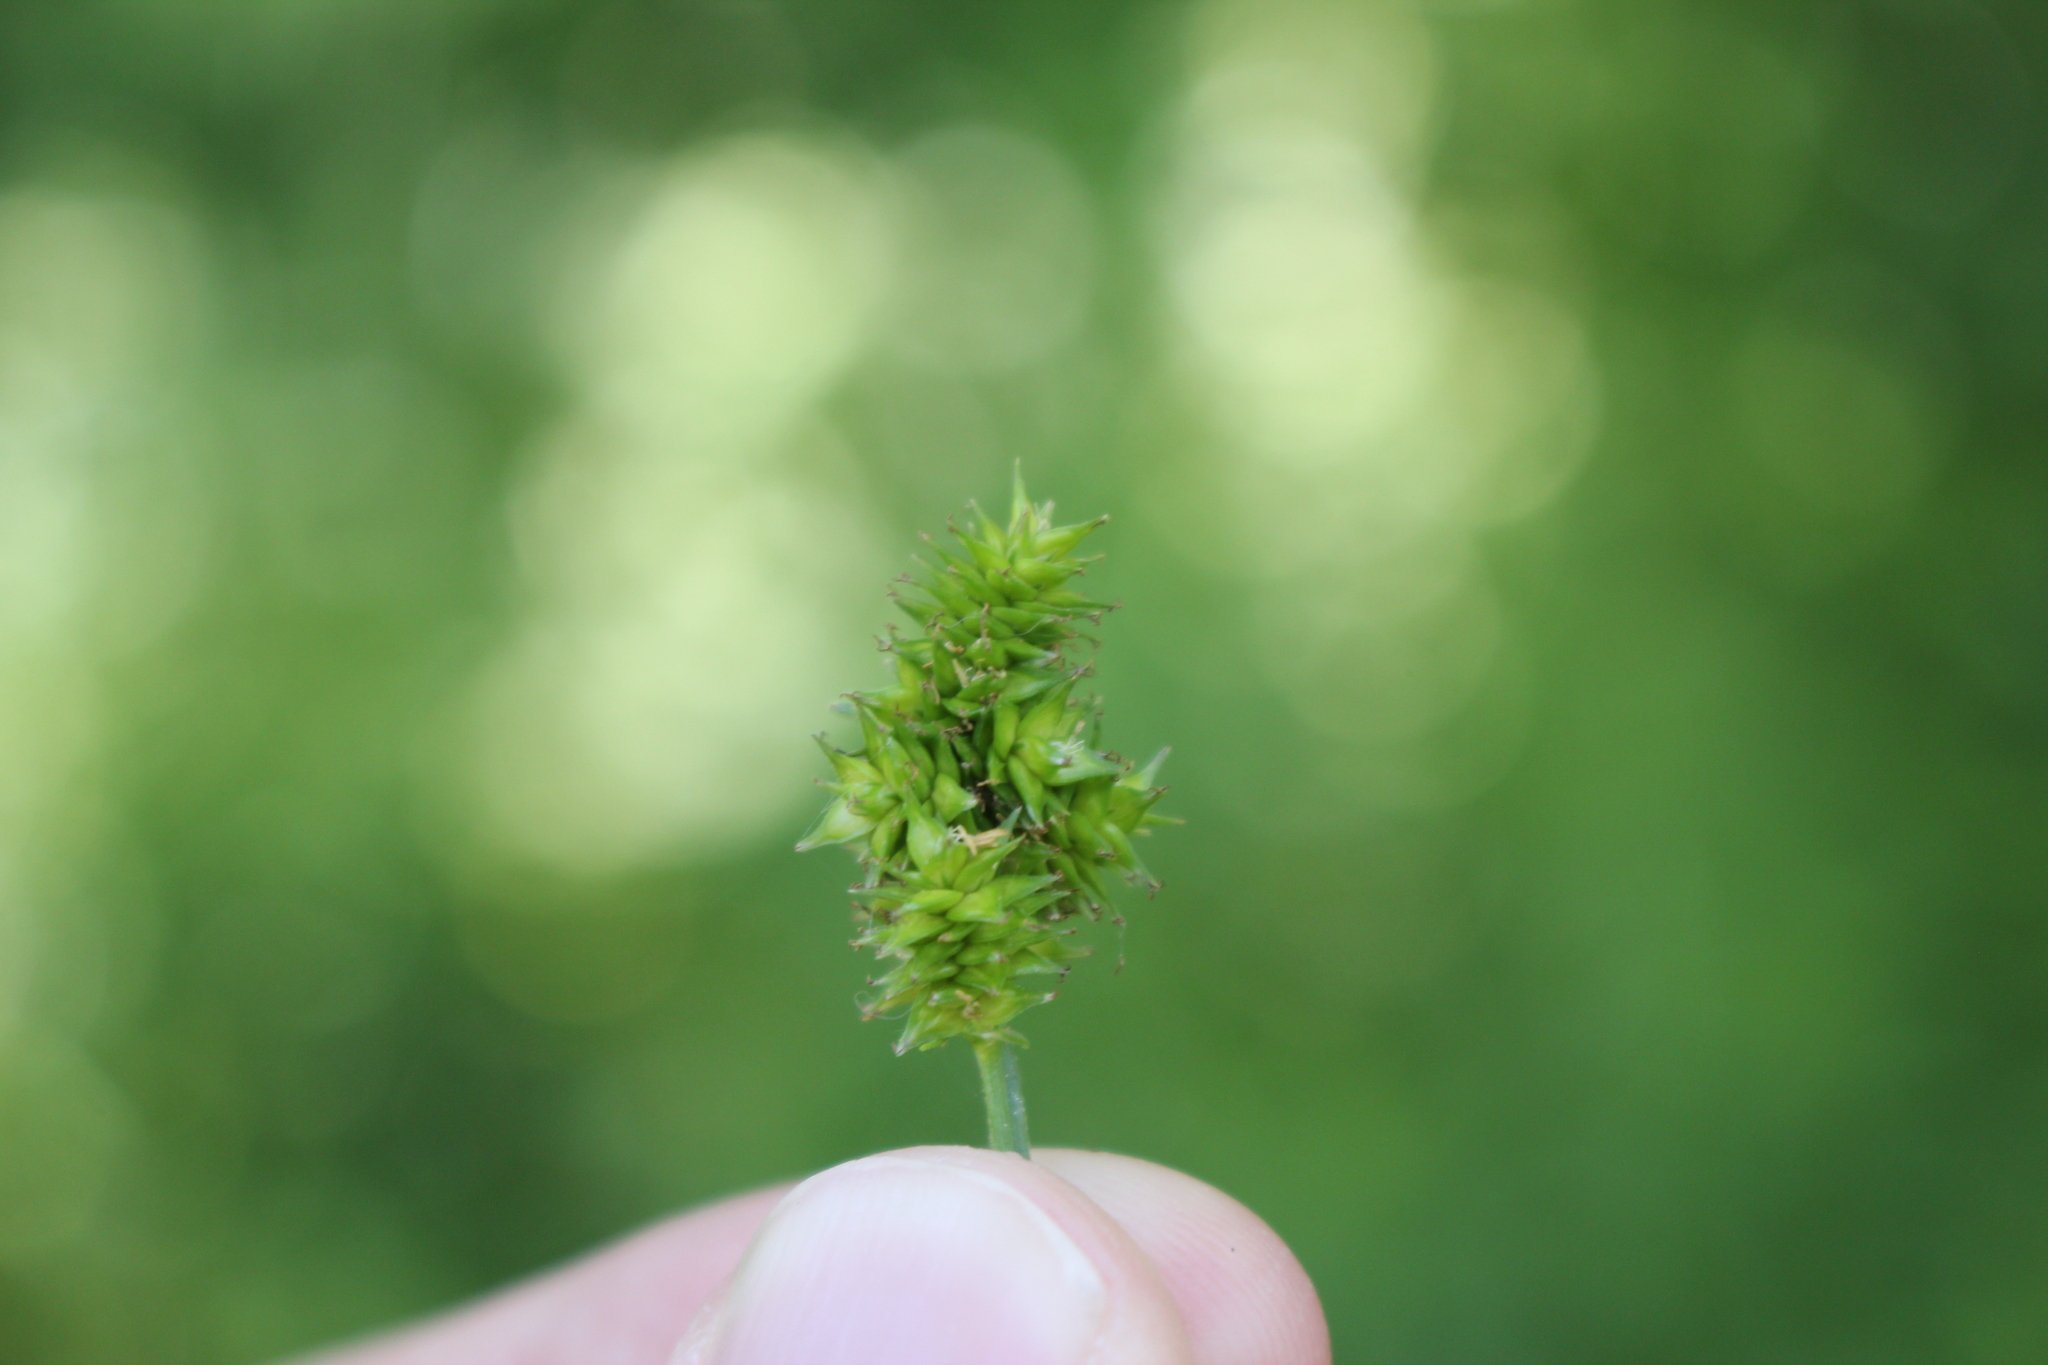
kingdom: Plantae
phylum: Tracheophyta
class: Liliopsida
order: Poales
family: Cyperaceae
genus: Carex
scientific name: Carex cephalophora
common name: Oval-headed sedge
